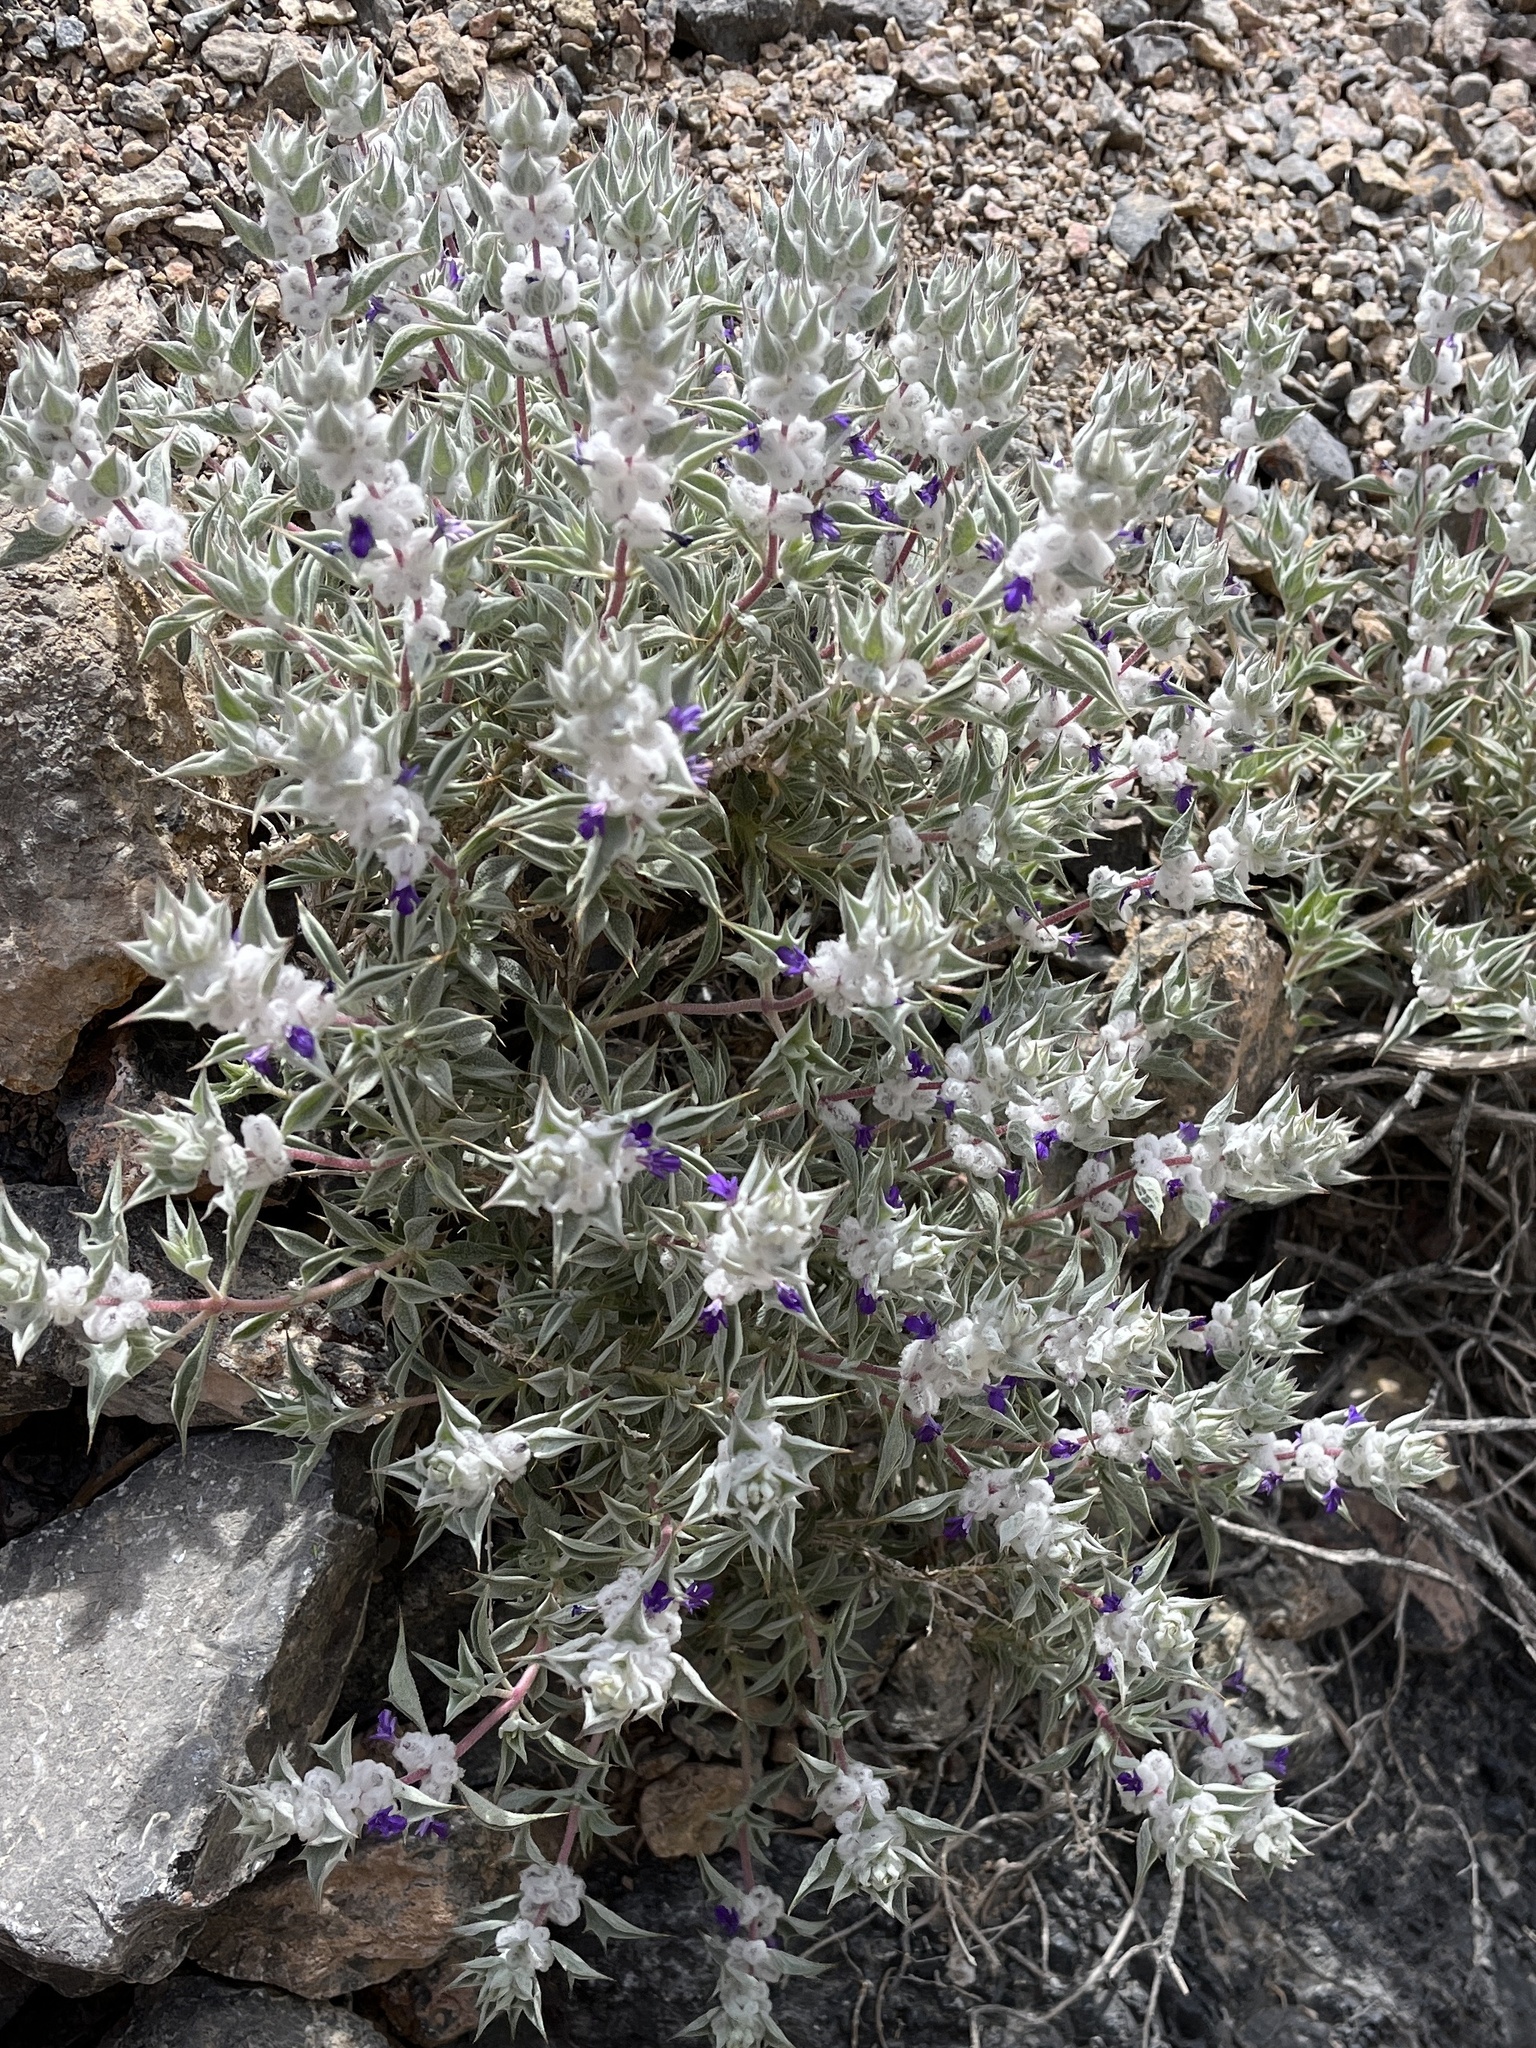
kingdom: Plantae
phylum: Tracheophyta
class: Magnoliopsida
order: Lamiales
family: Lamiaceae
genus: Salvia
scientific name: Salvia funerea
